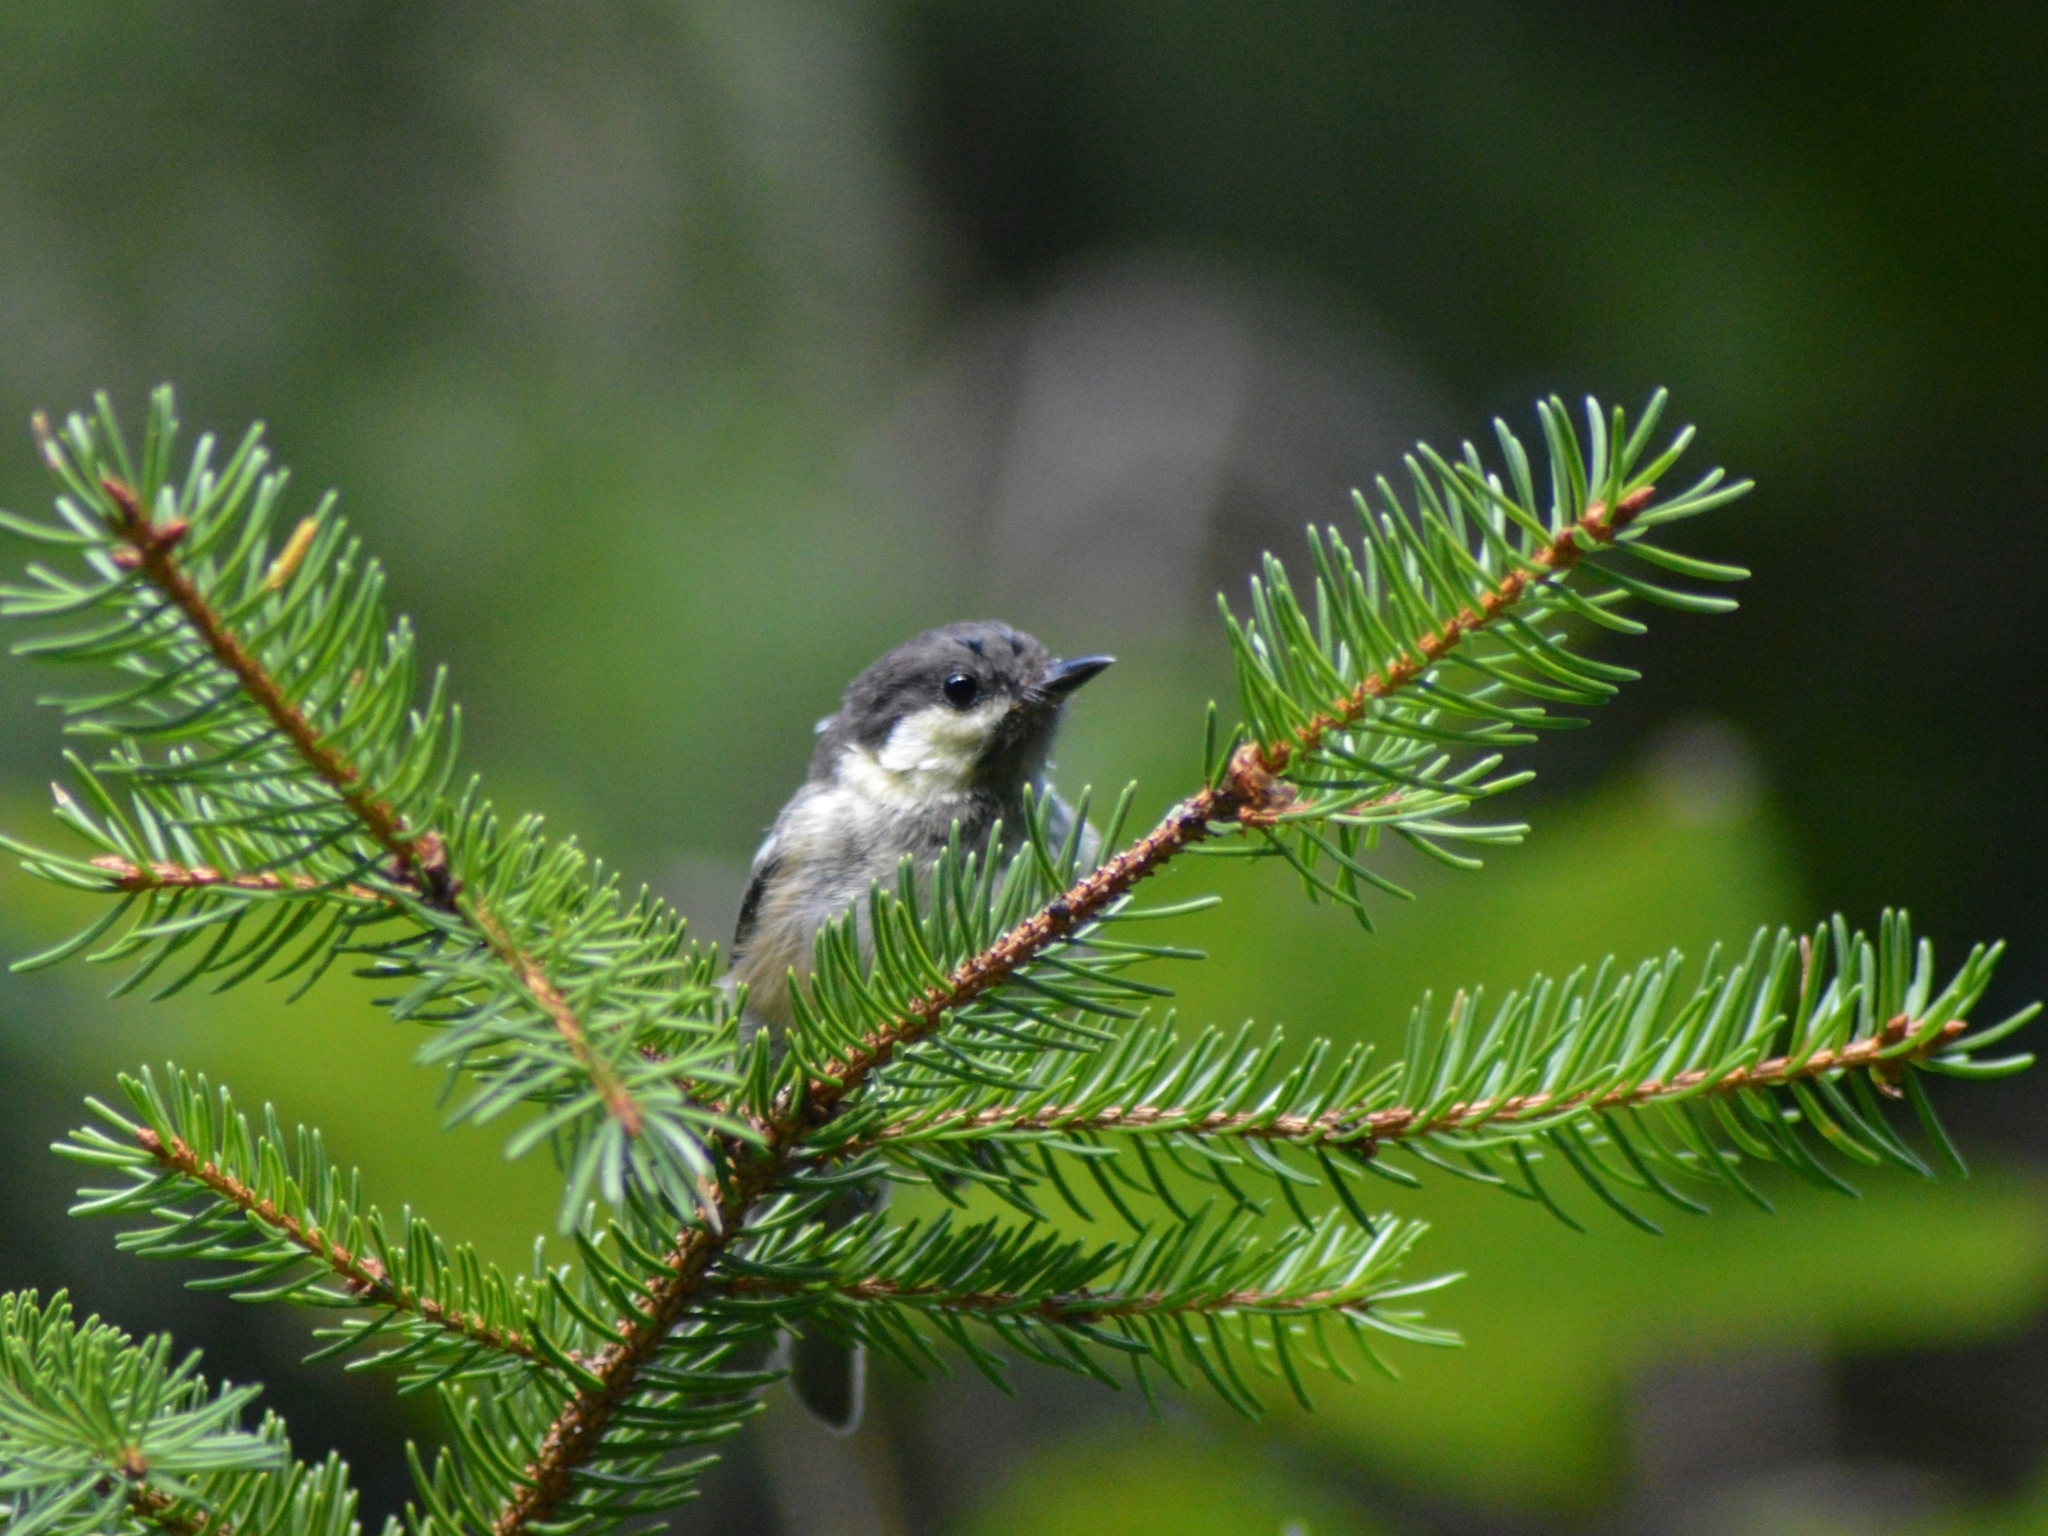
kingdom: Animalia
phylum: Chordata
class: Aves
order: Passeriformes
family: Paridae
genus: Periparus
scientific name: Periparus ater
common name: Coal tit
